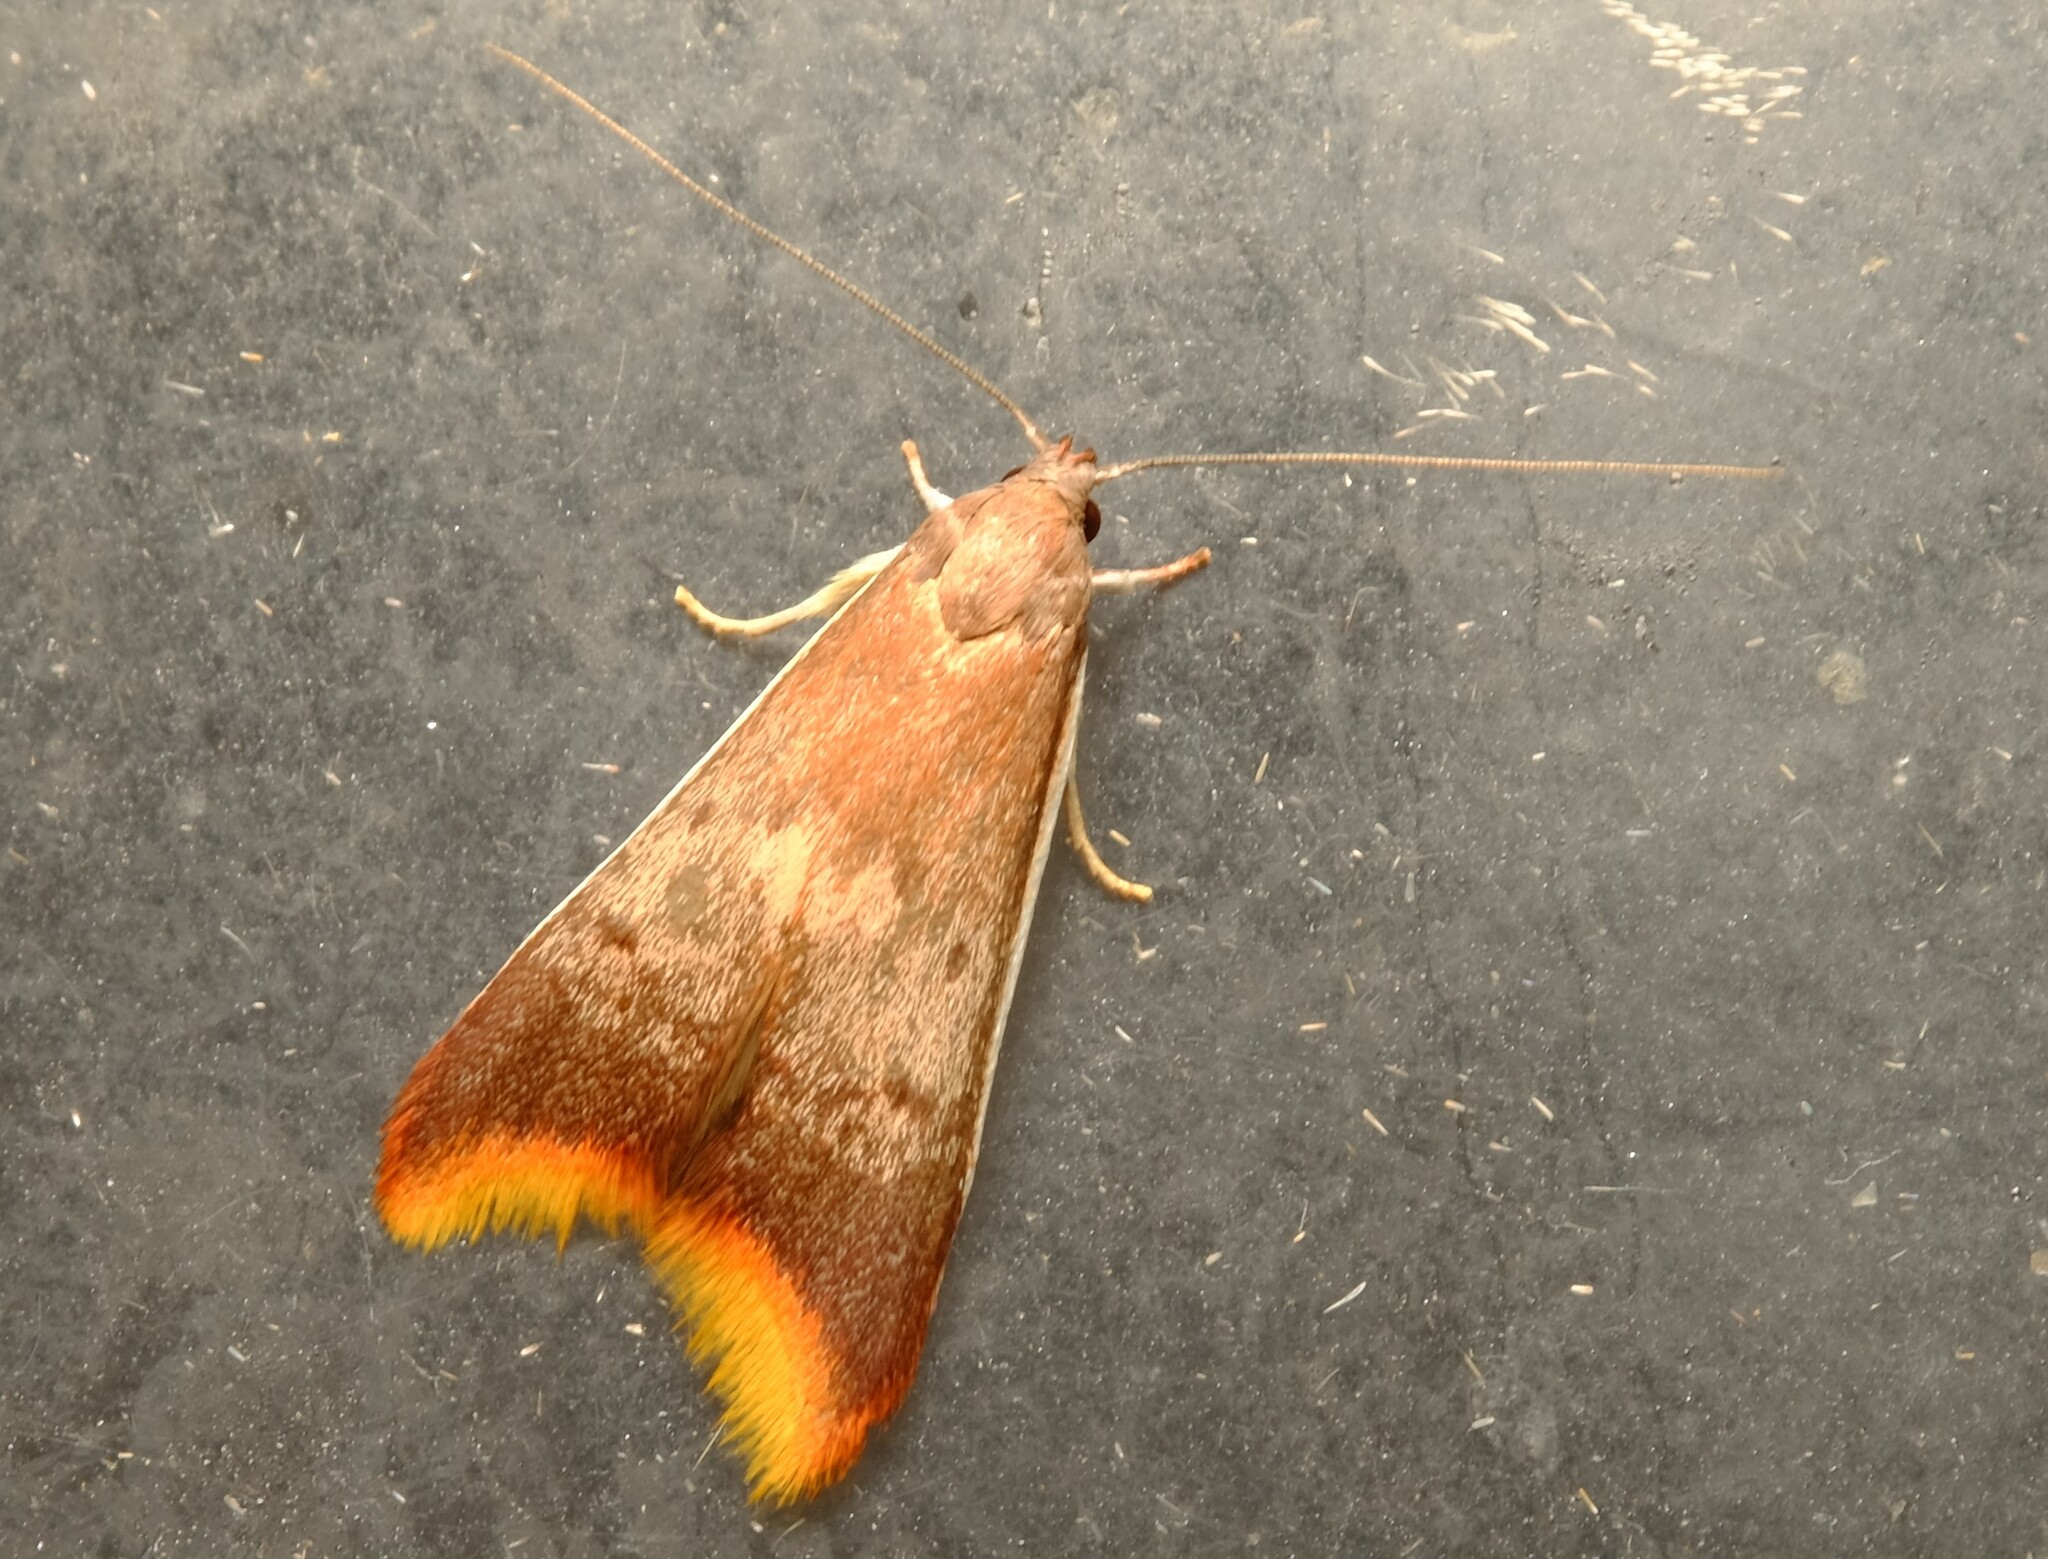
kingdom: Animalia
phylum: Arthropoda
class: Insecta
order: Lepidoptera
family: Oecophoridae
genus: Hemibela
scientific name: Hemibela callista
